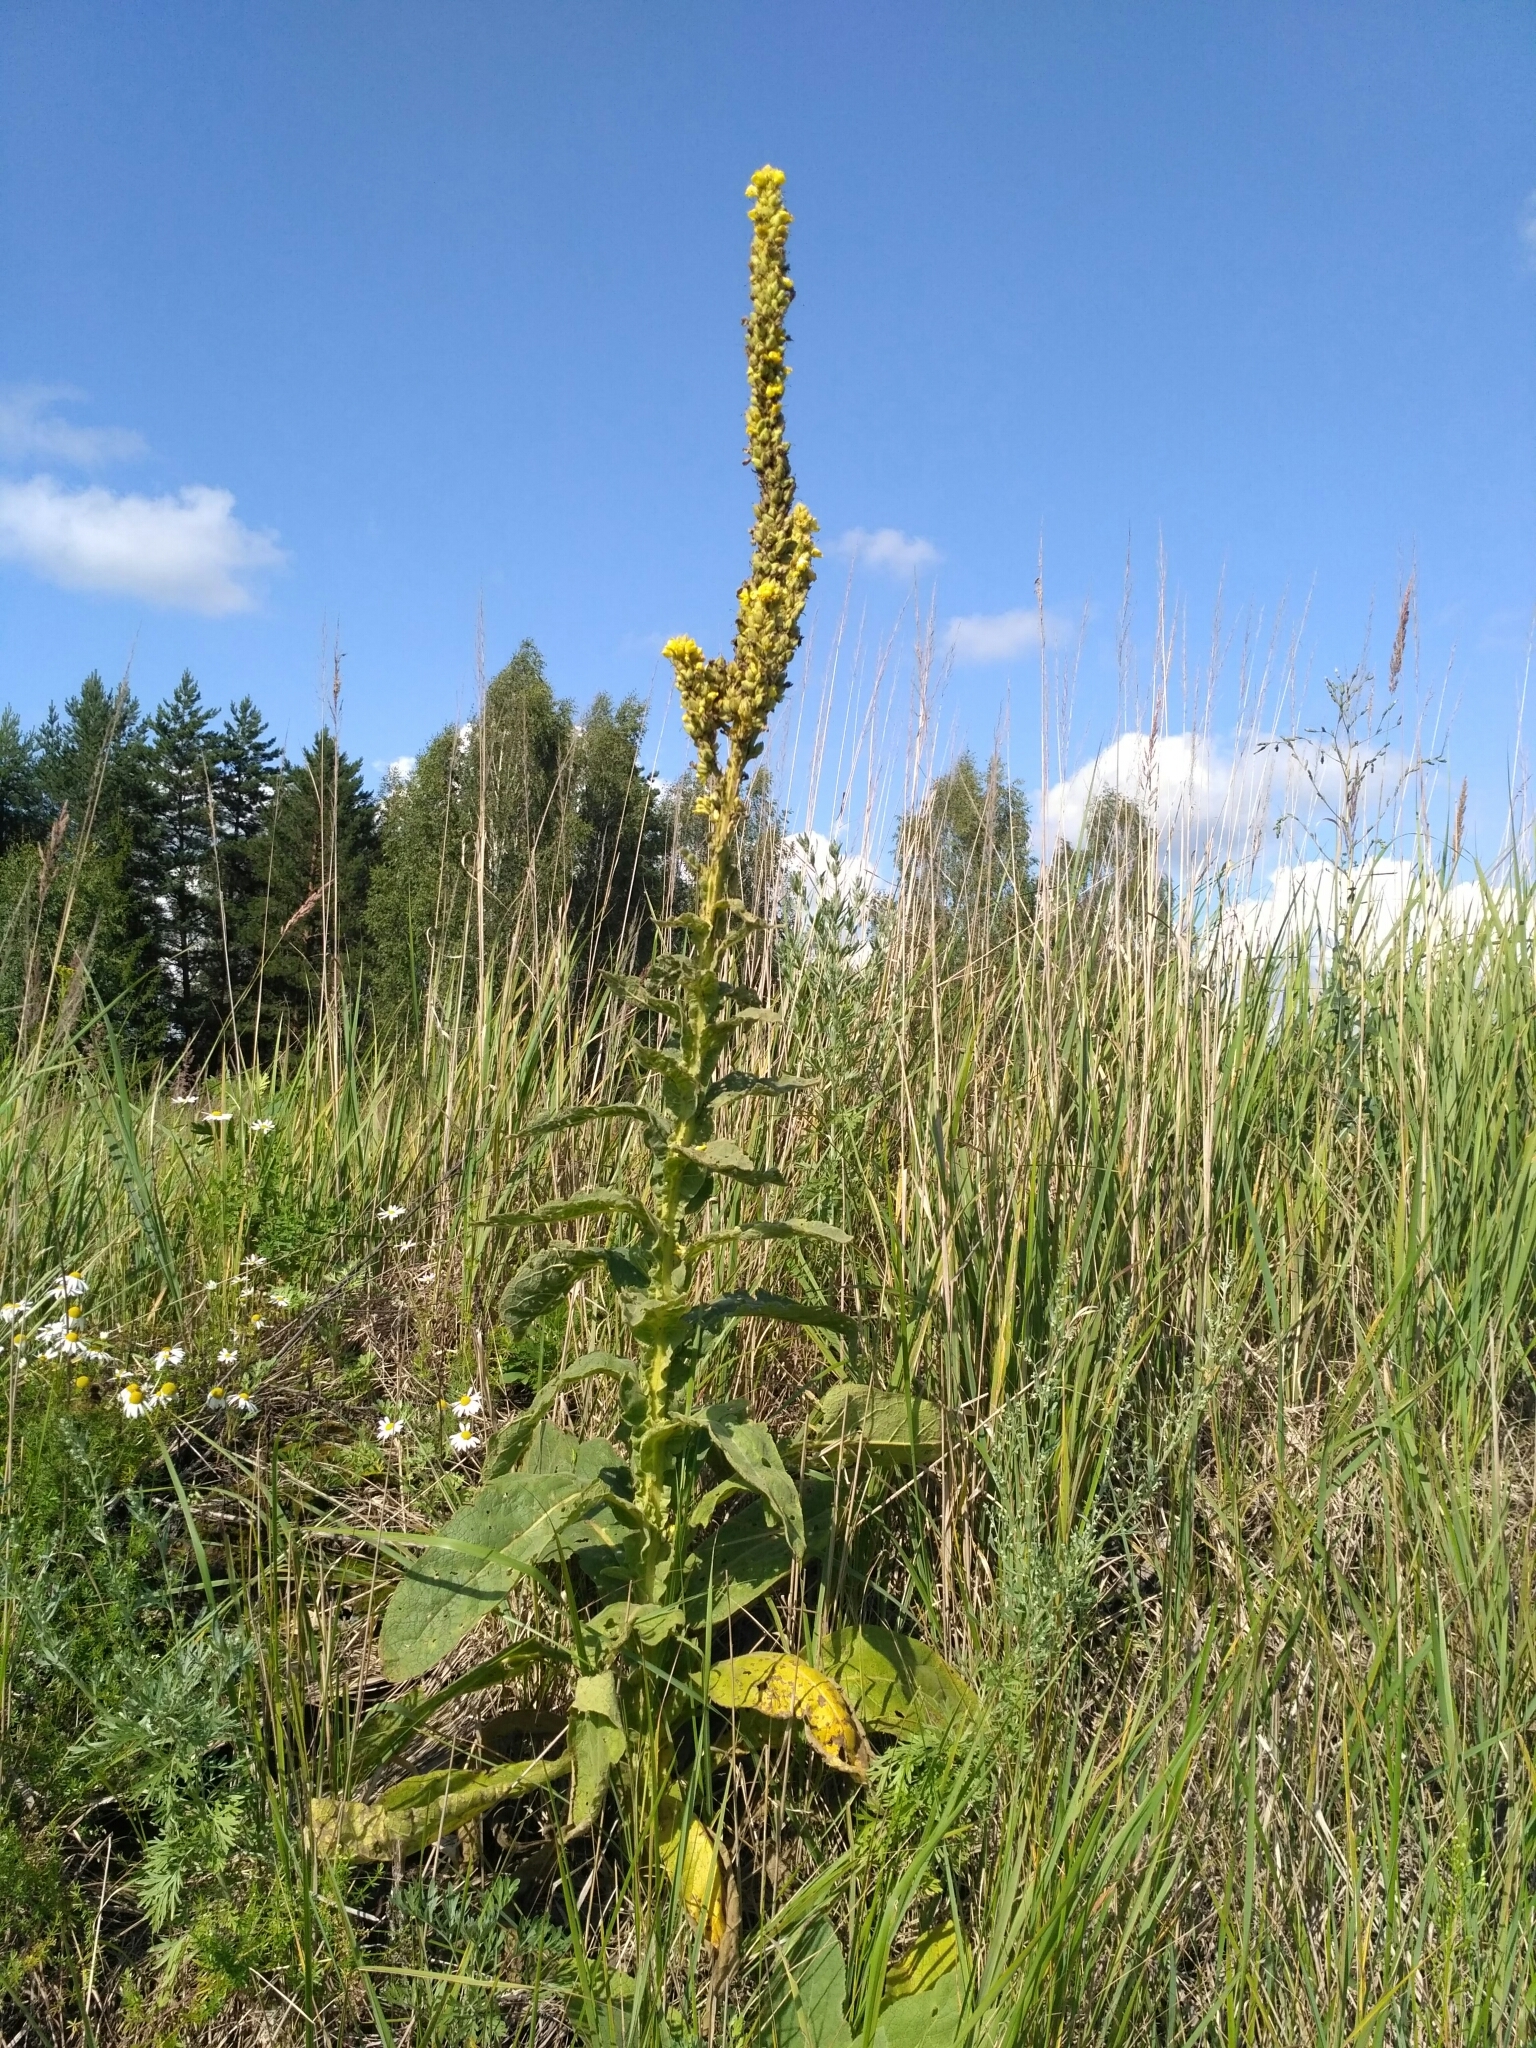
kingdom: Plantae
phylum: Tracheophyta
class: Magnoliopsida
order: Lamiales
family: Scrophulariaceae
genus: Verbascum
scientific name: Verbascum thapsus
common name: Common mullein
